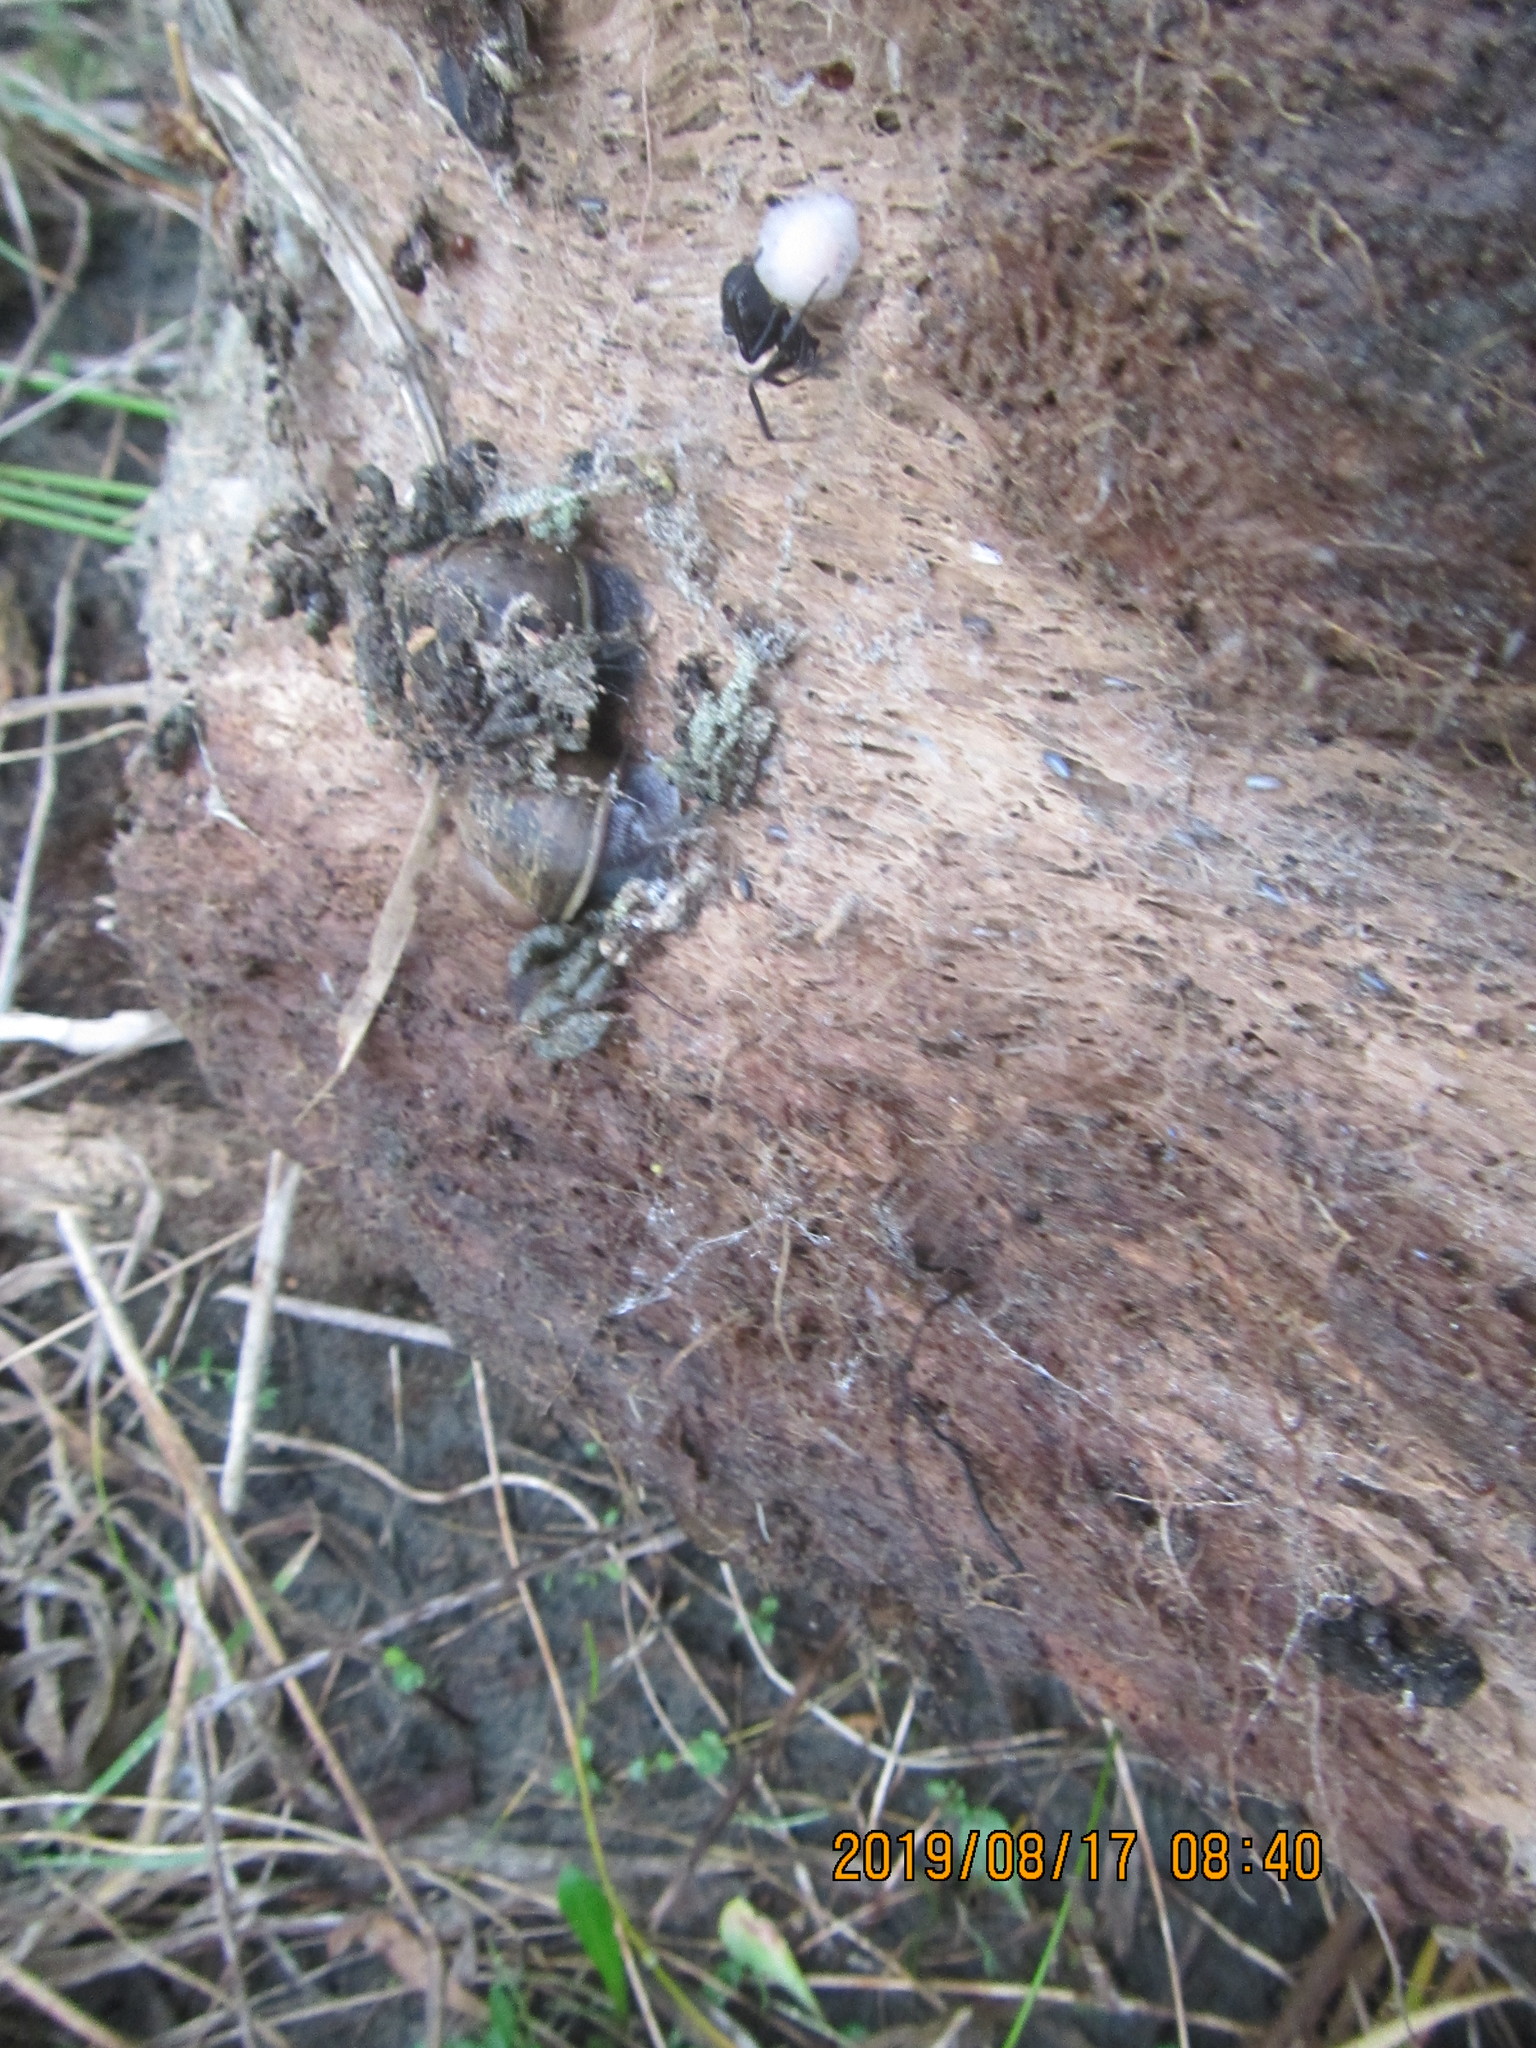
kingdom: Animalia
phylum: Mollusca
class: Gastropoda
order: Stylommatophora
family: Helicidae
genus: Cornu
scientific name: Cornu aspersum
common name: Brown garden snail
